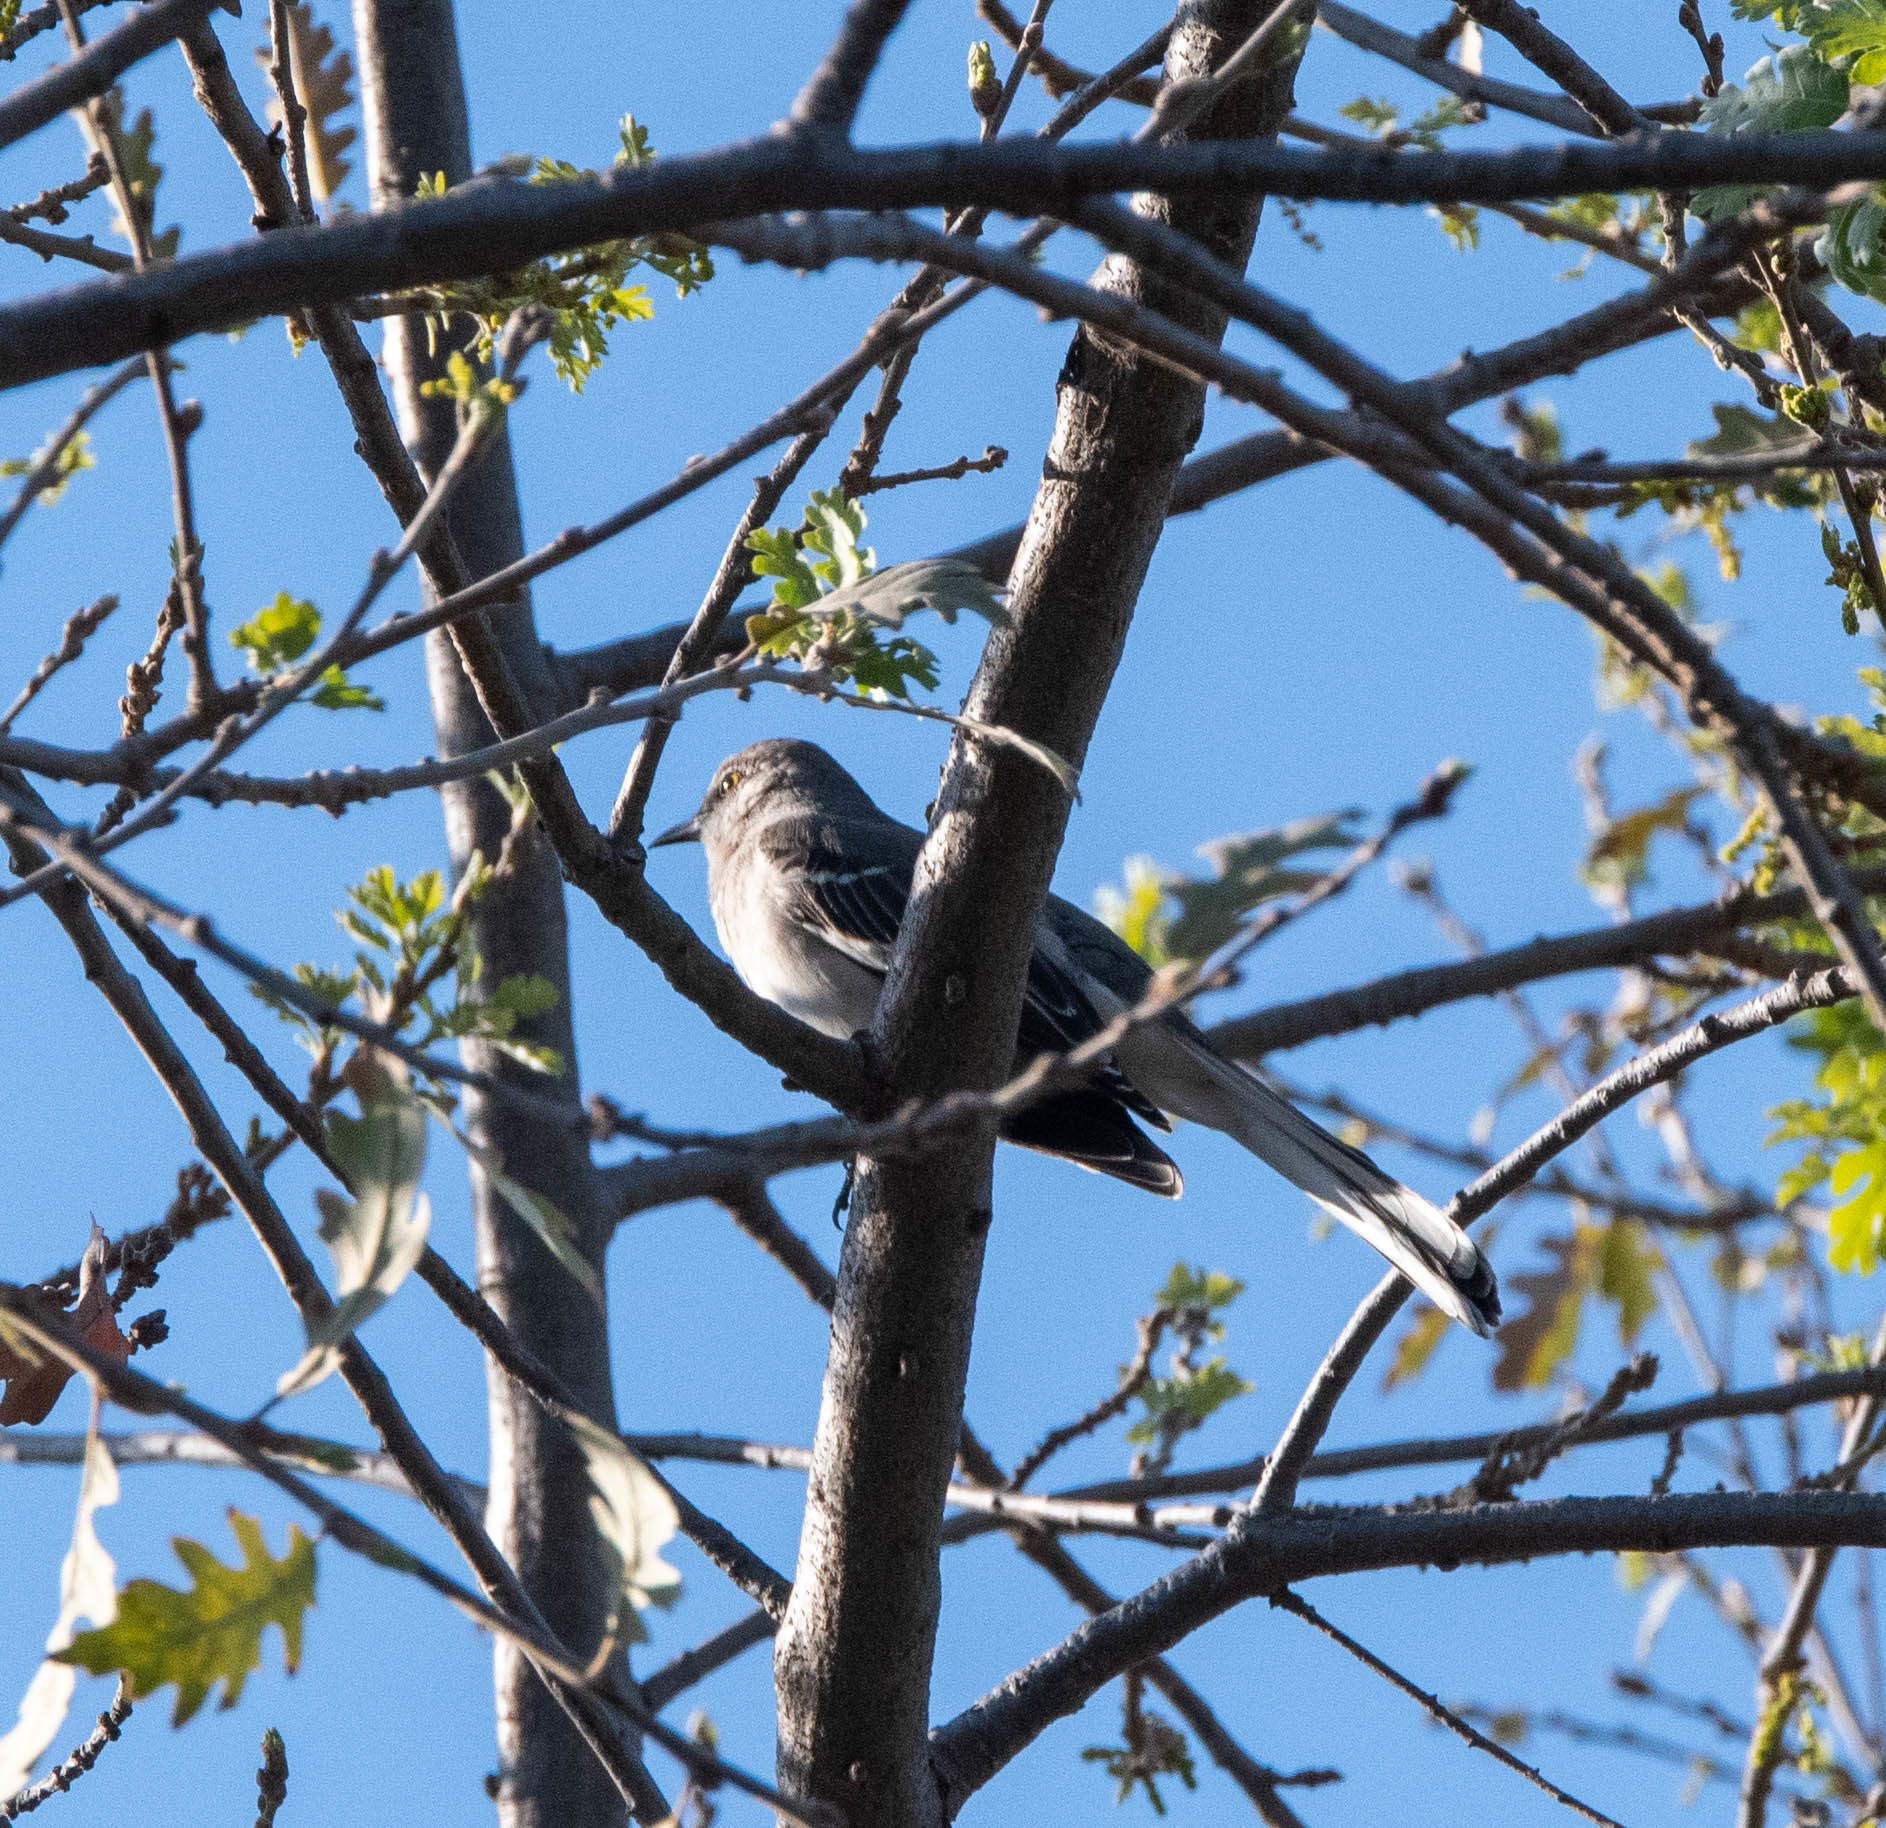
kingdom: Animalia
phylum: Chordata
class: Aves
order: Passeriformes
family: Mimidae
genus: Mimus
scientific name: Mimus polyglottos
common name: Northern mockingbird
